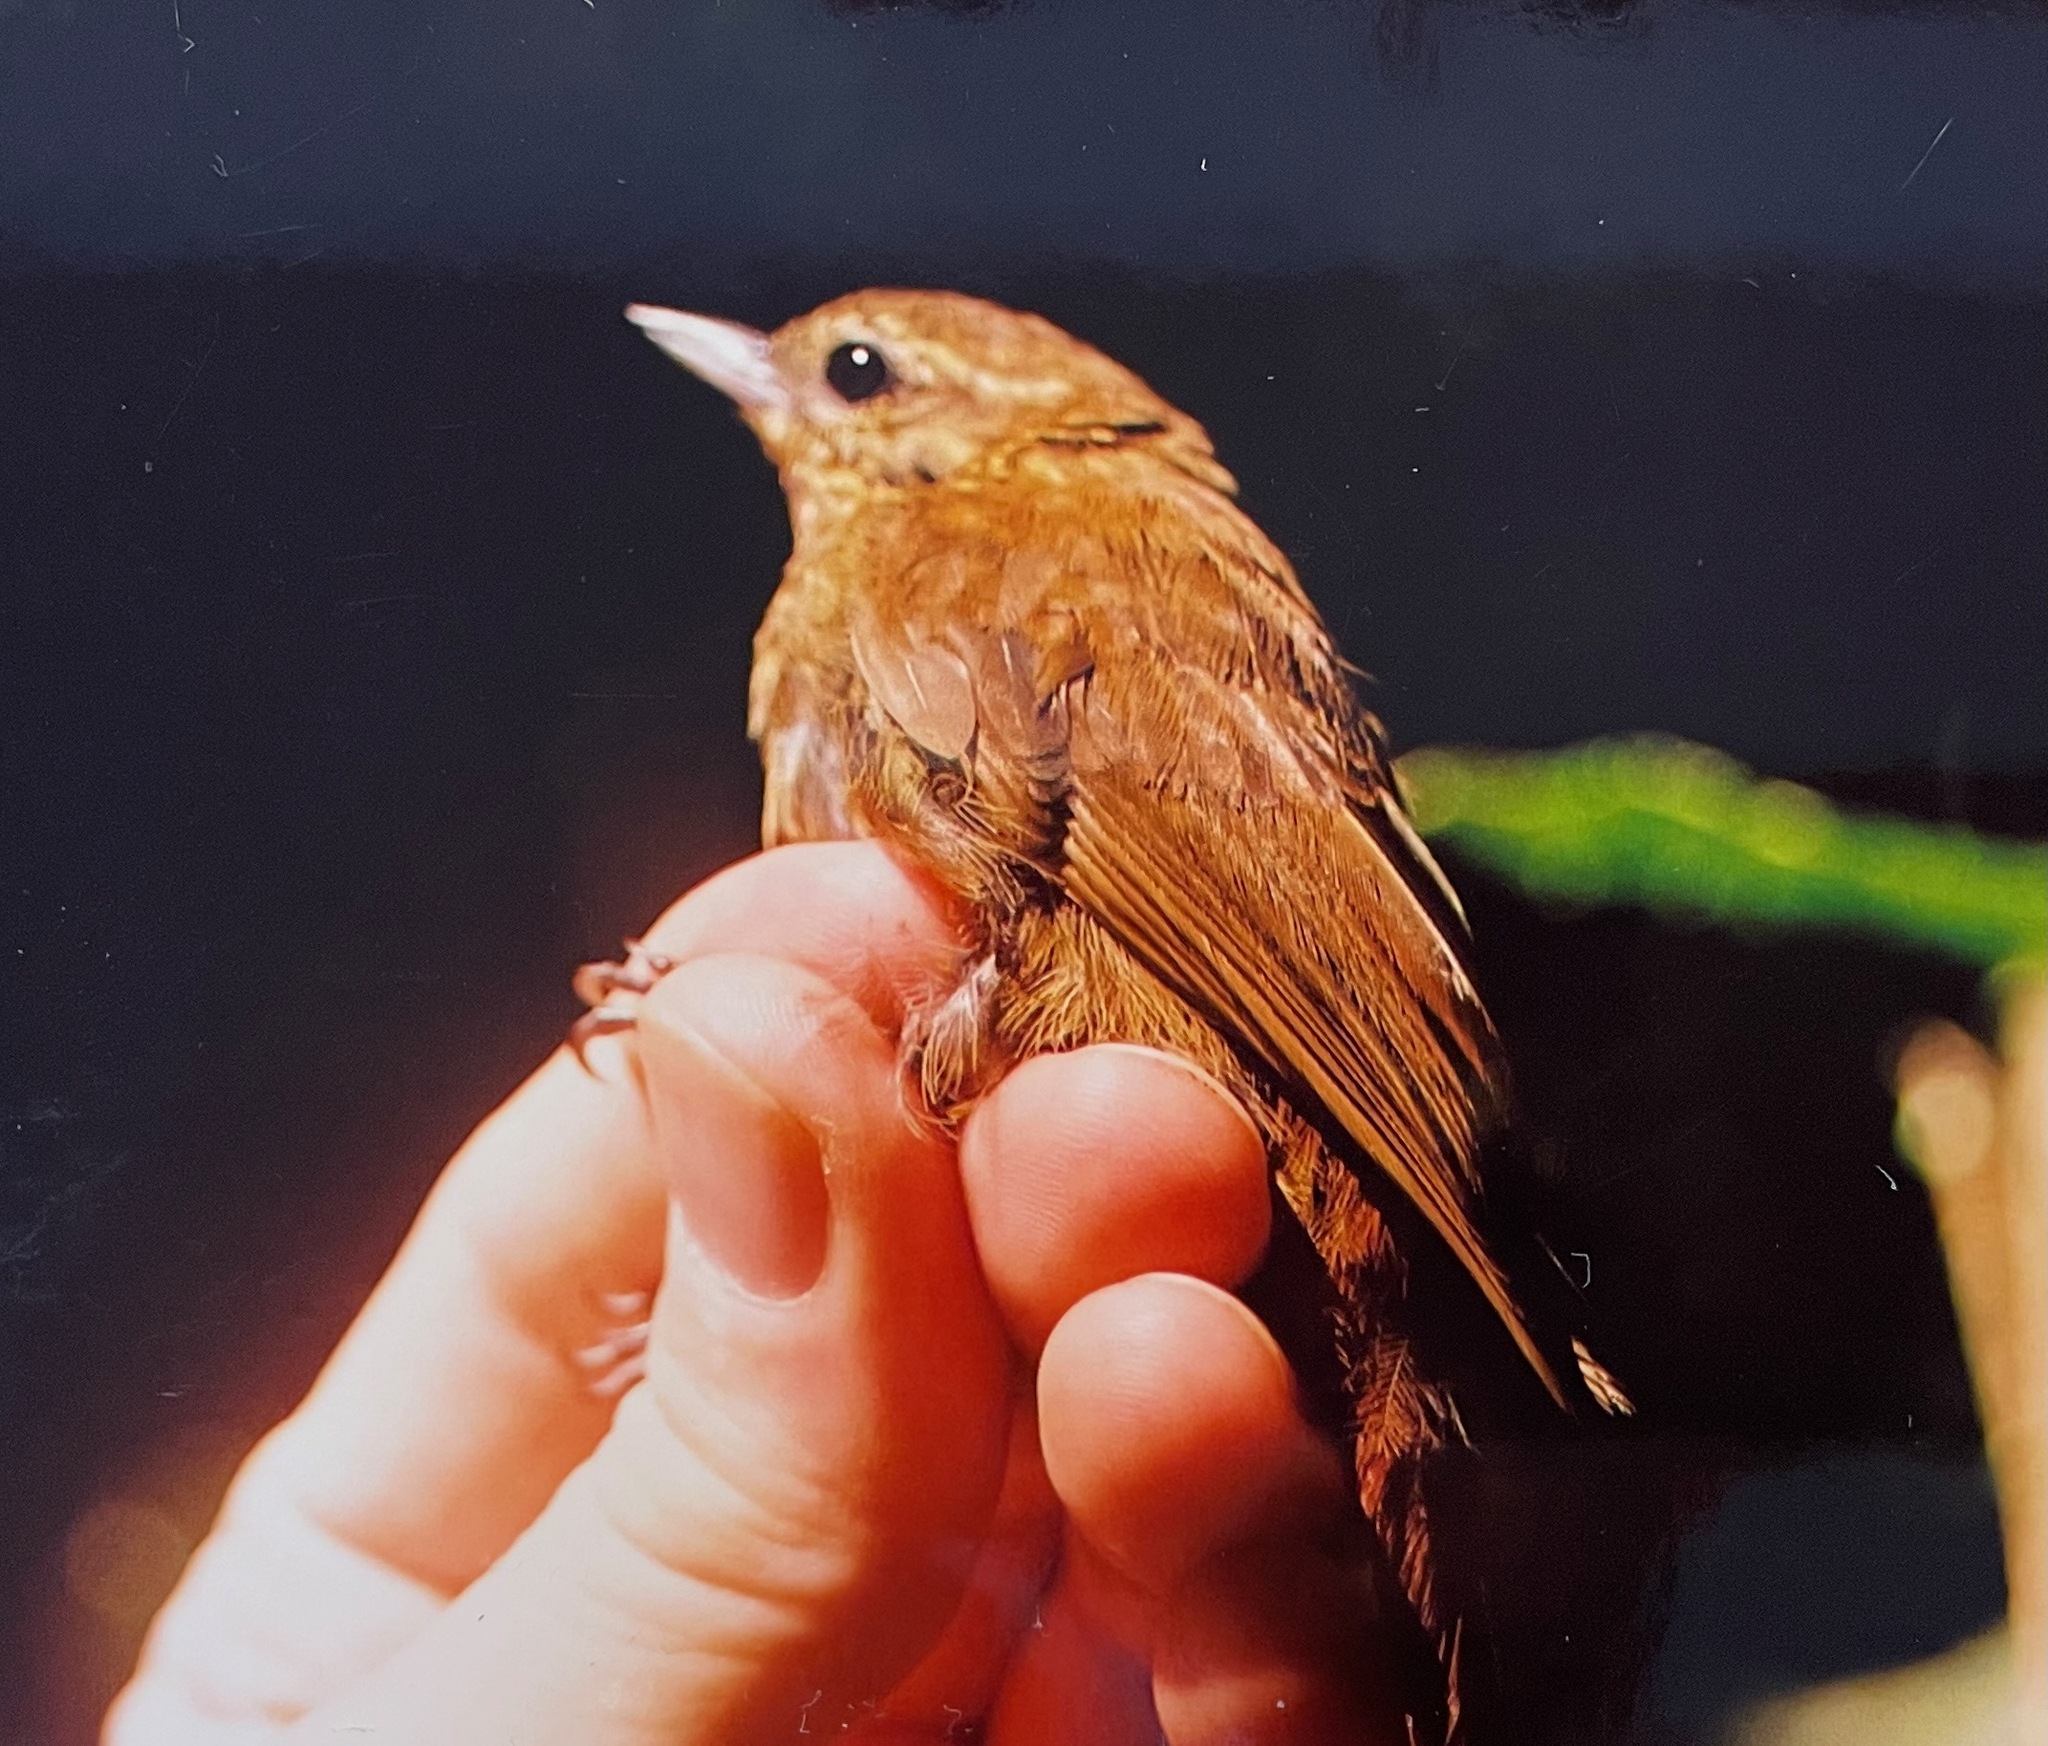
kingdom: Animalia
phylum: Chordata
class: Aves
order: Passeriformes
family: Furnariidae
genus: Glyphorynchus
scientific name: Glyphorynchus spirurus
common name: Wedge-billed woodcreeper
